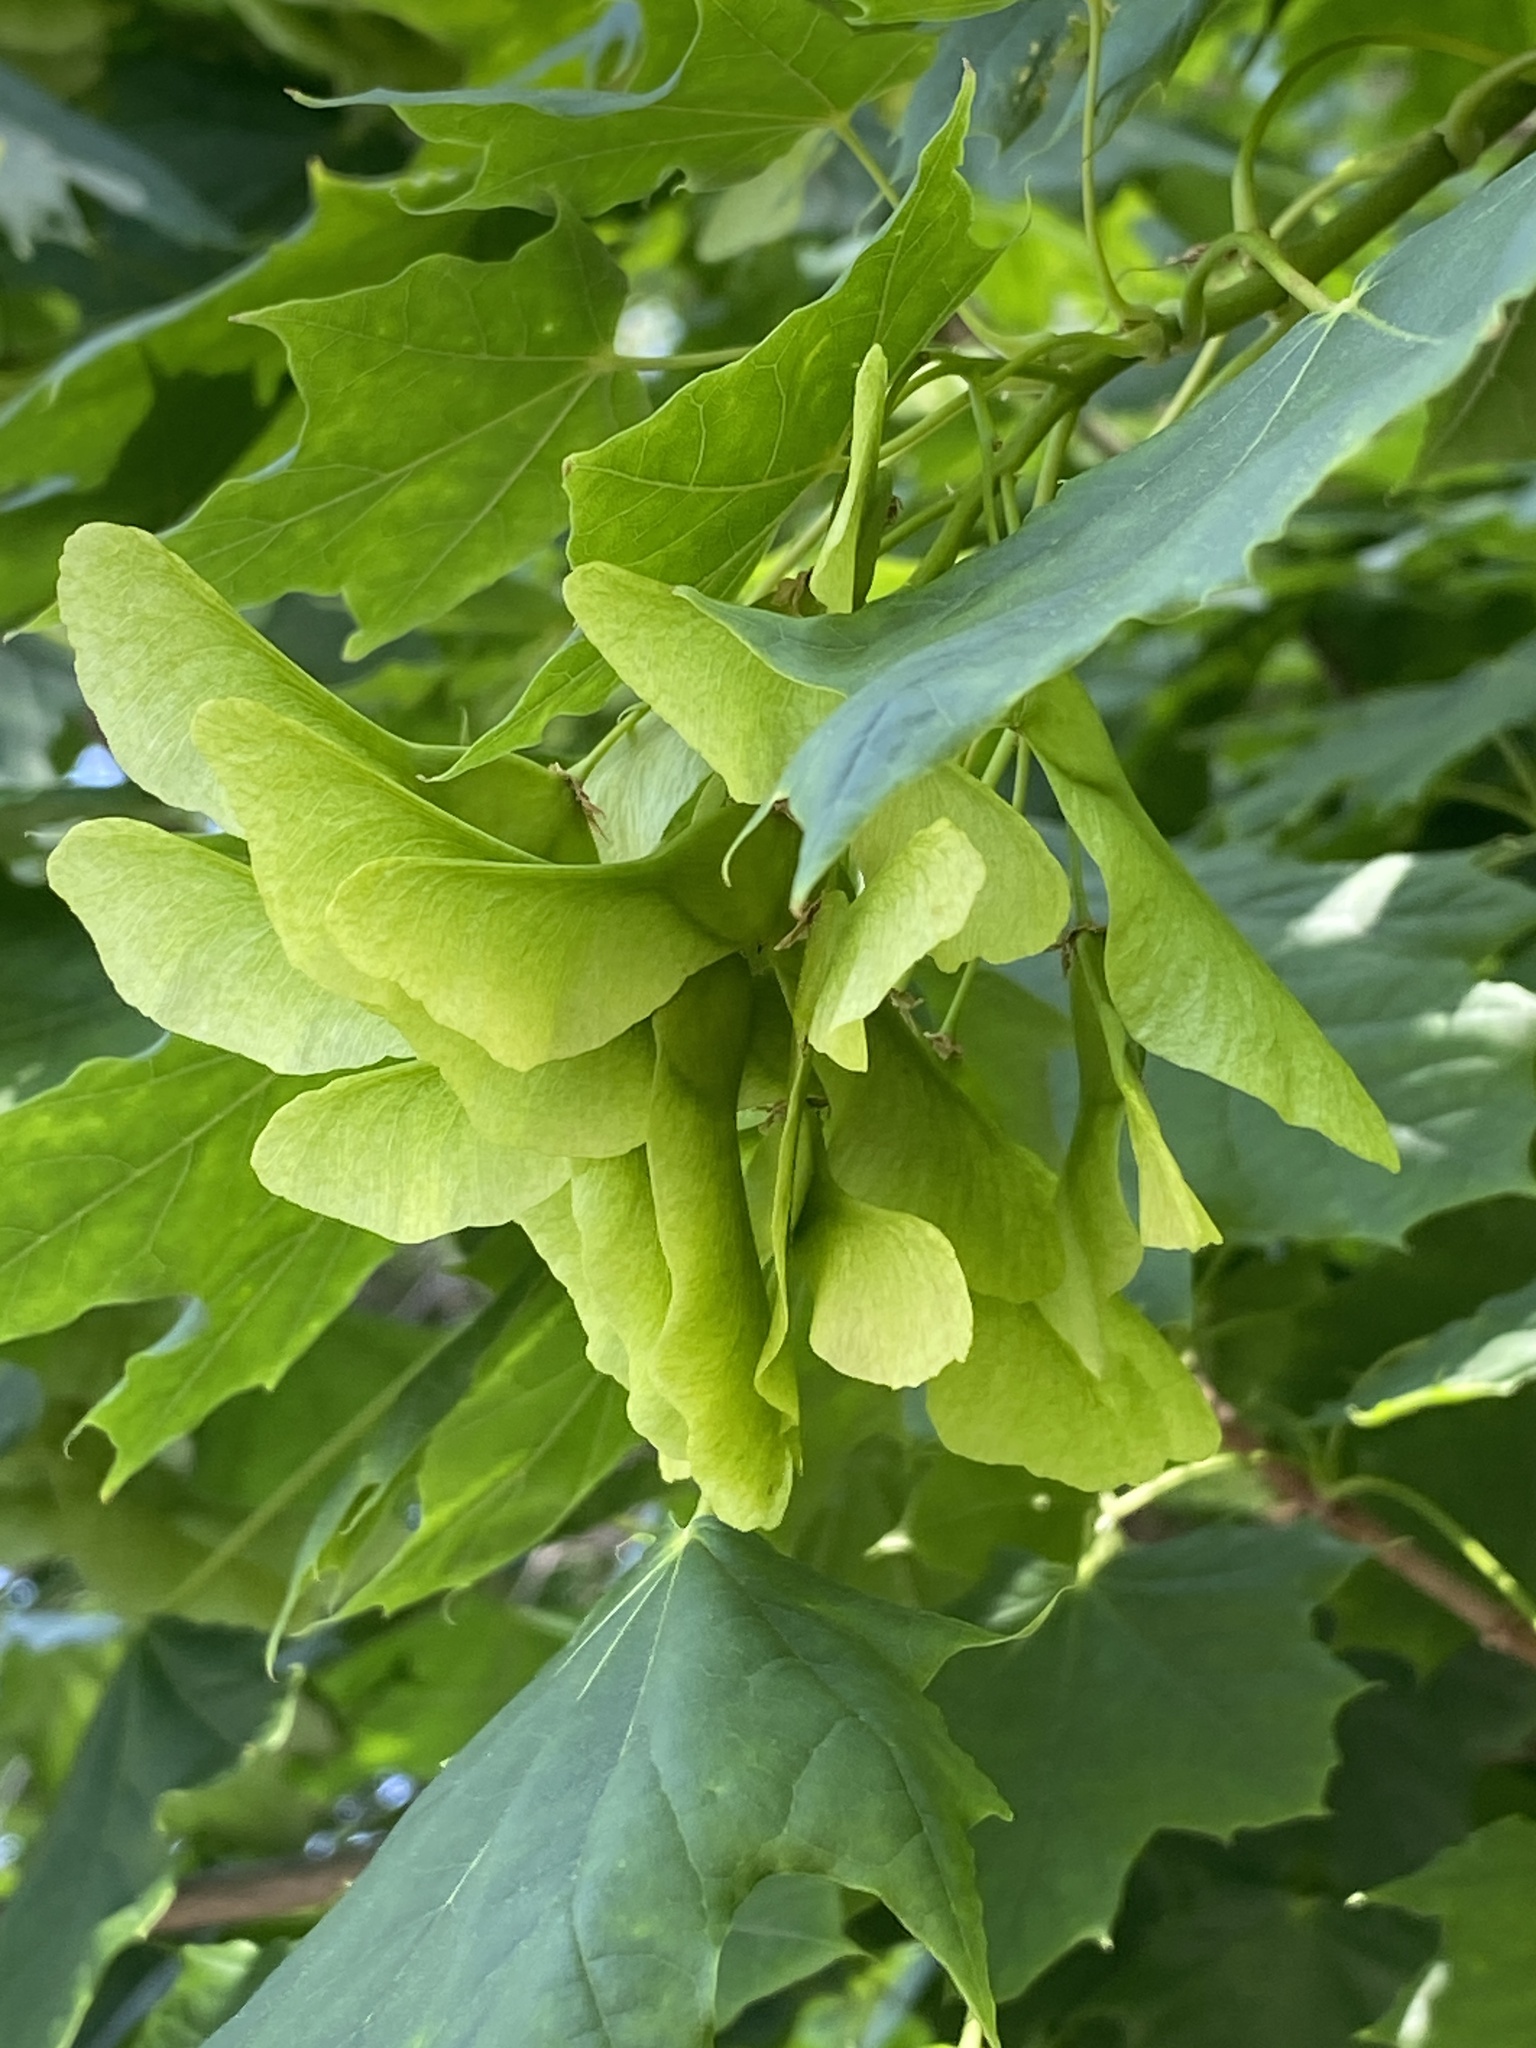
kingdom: Plantae
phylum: Tracheophyta
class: Magnoliopsida
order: Sapindales
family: Sapindaceae
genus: Acer
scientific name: Acer platanoides
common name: Norway maple
